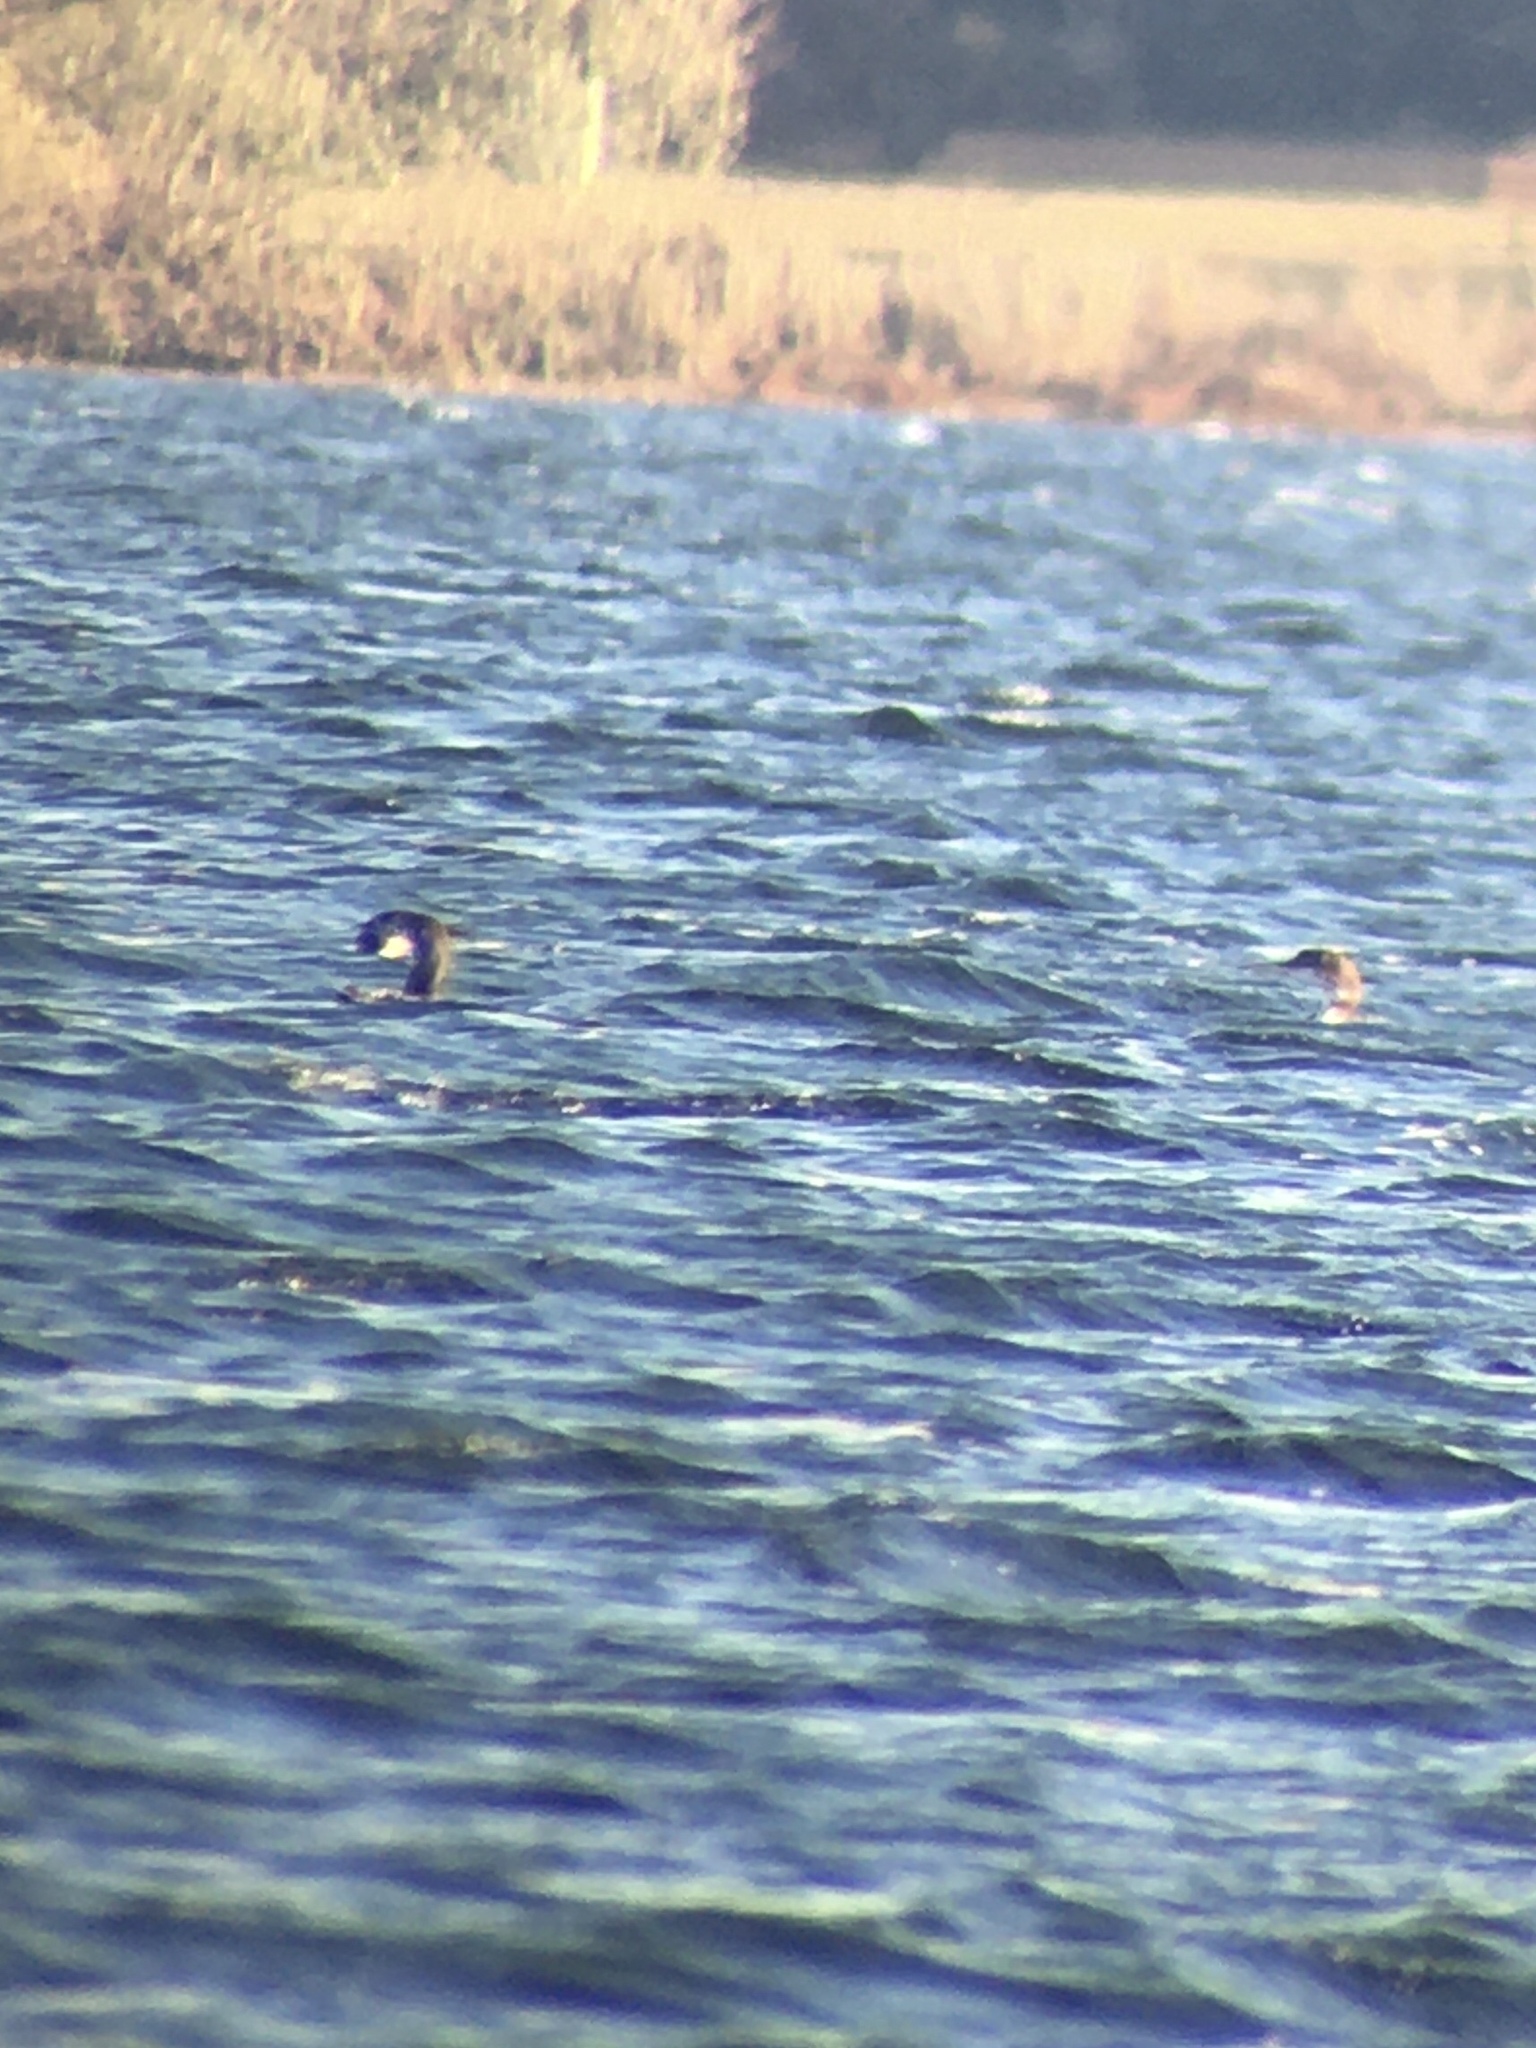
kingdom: Animalia
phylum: Chordata
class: Aves
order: Gaviiformes
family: Gaviidae
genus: Gavia
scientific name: Gavia immer
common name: Common loon
